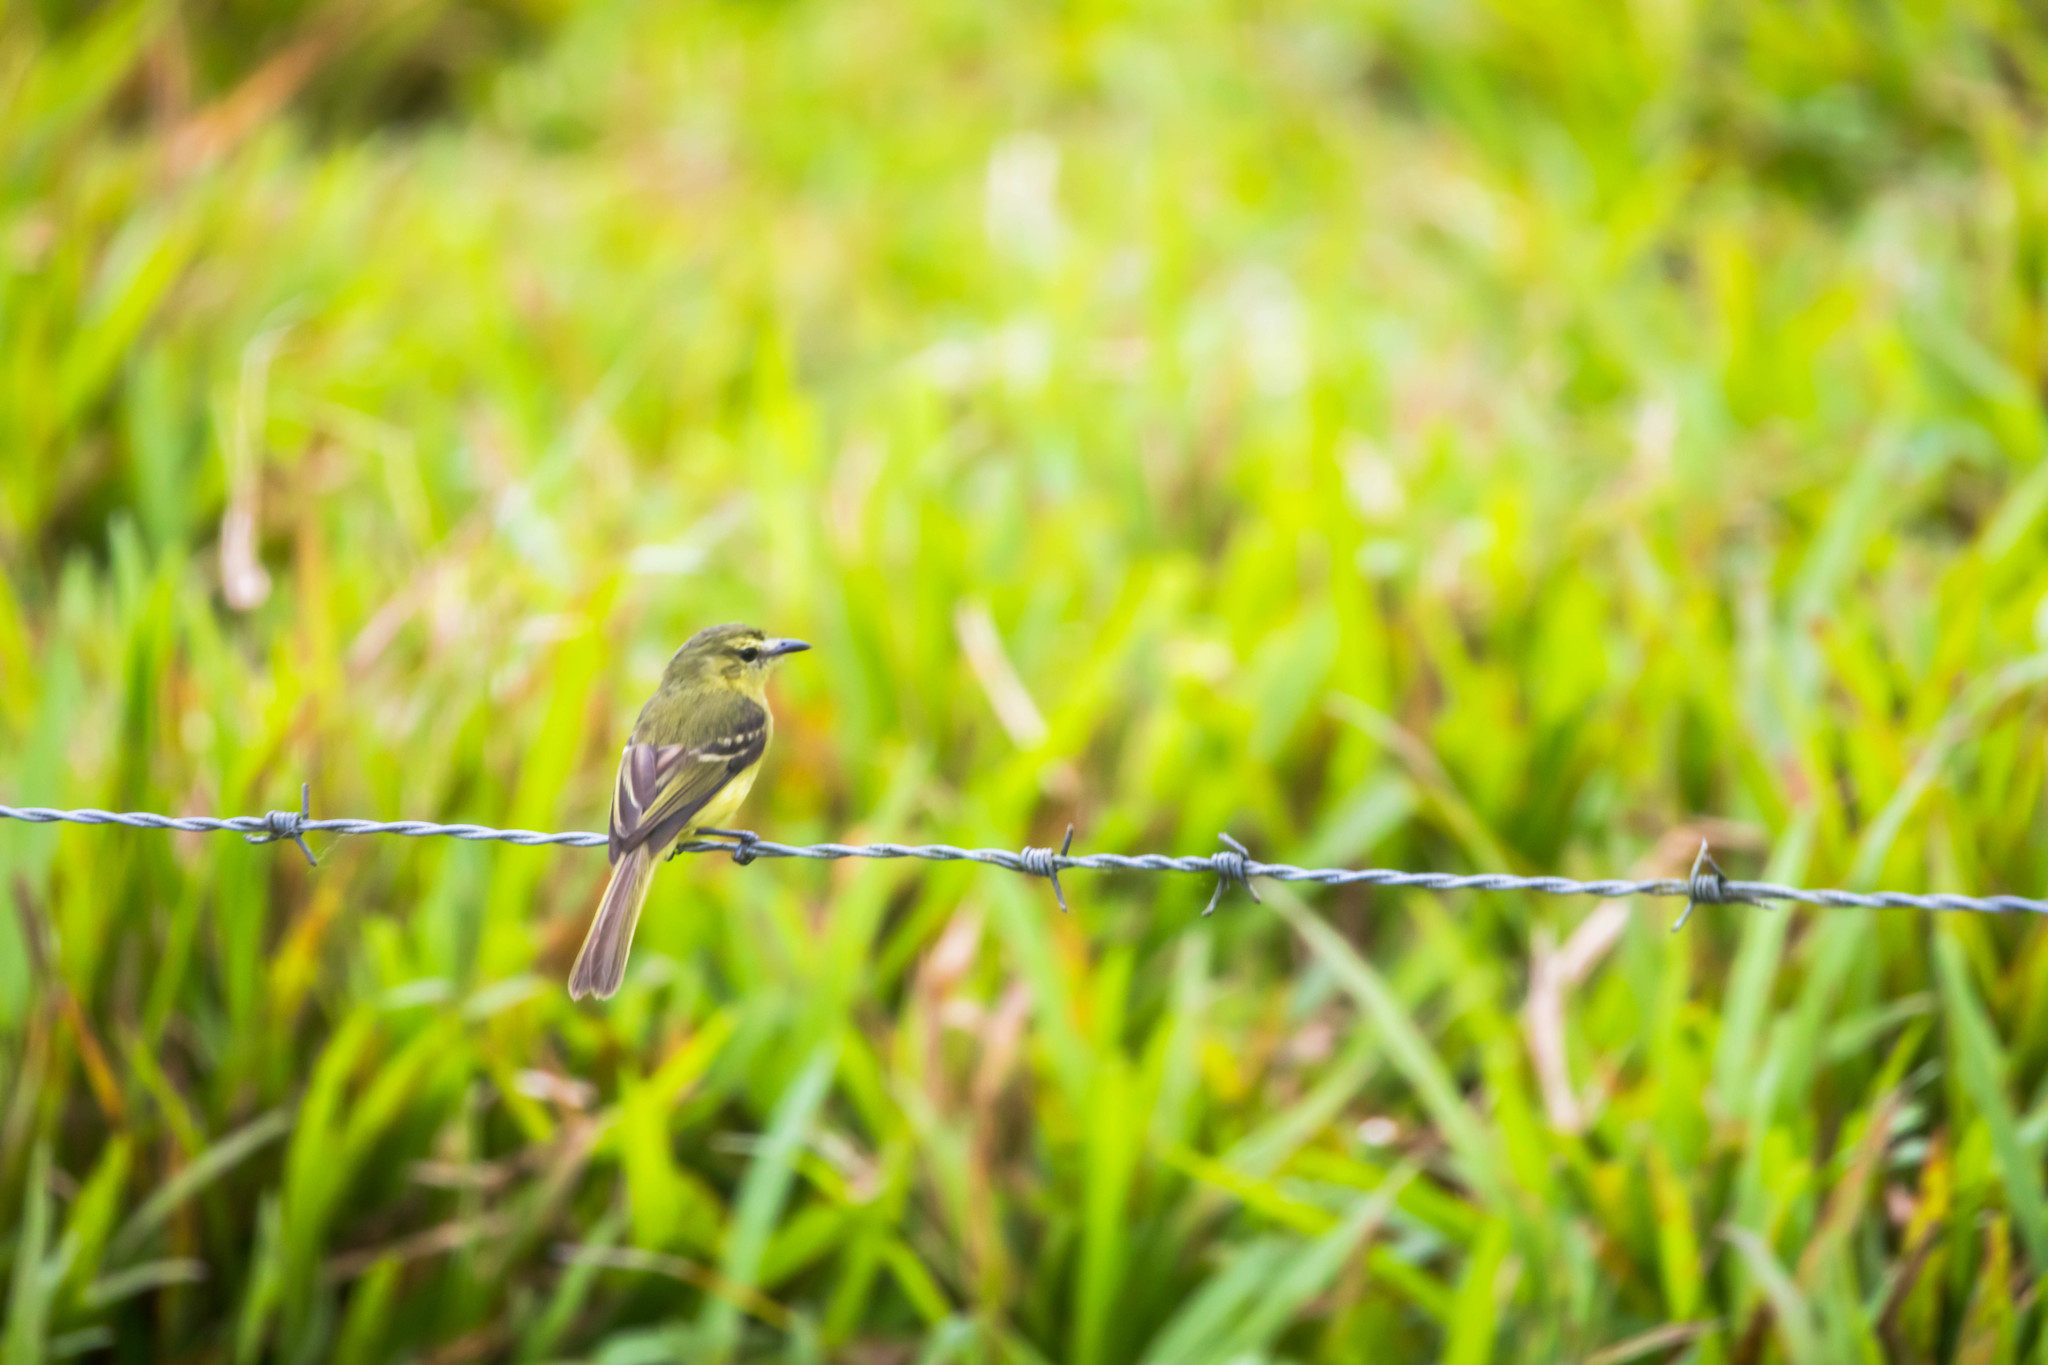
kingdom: Animalia
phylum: Chordata
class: Aves
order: Passeriformes
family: Tyrannidae
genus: Capsiempis
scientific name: Capsiempis flaveola
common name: Yellow tyrannulet
